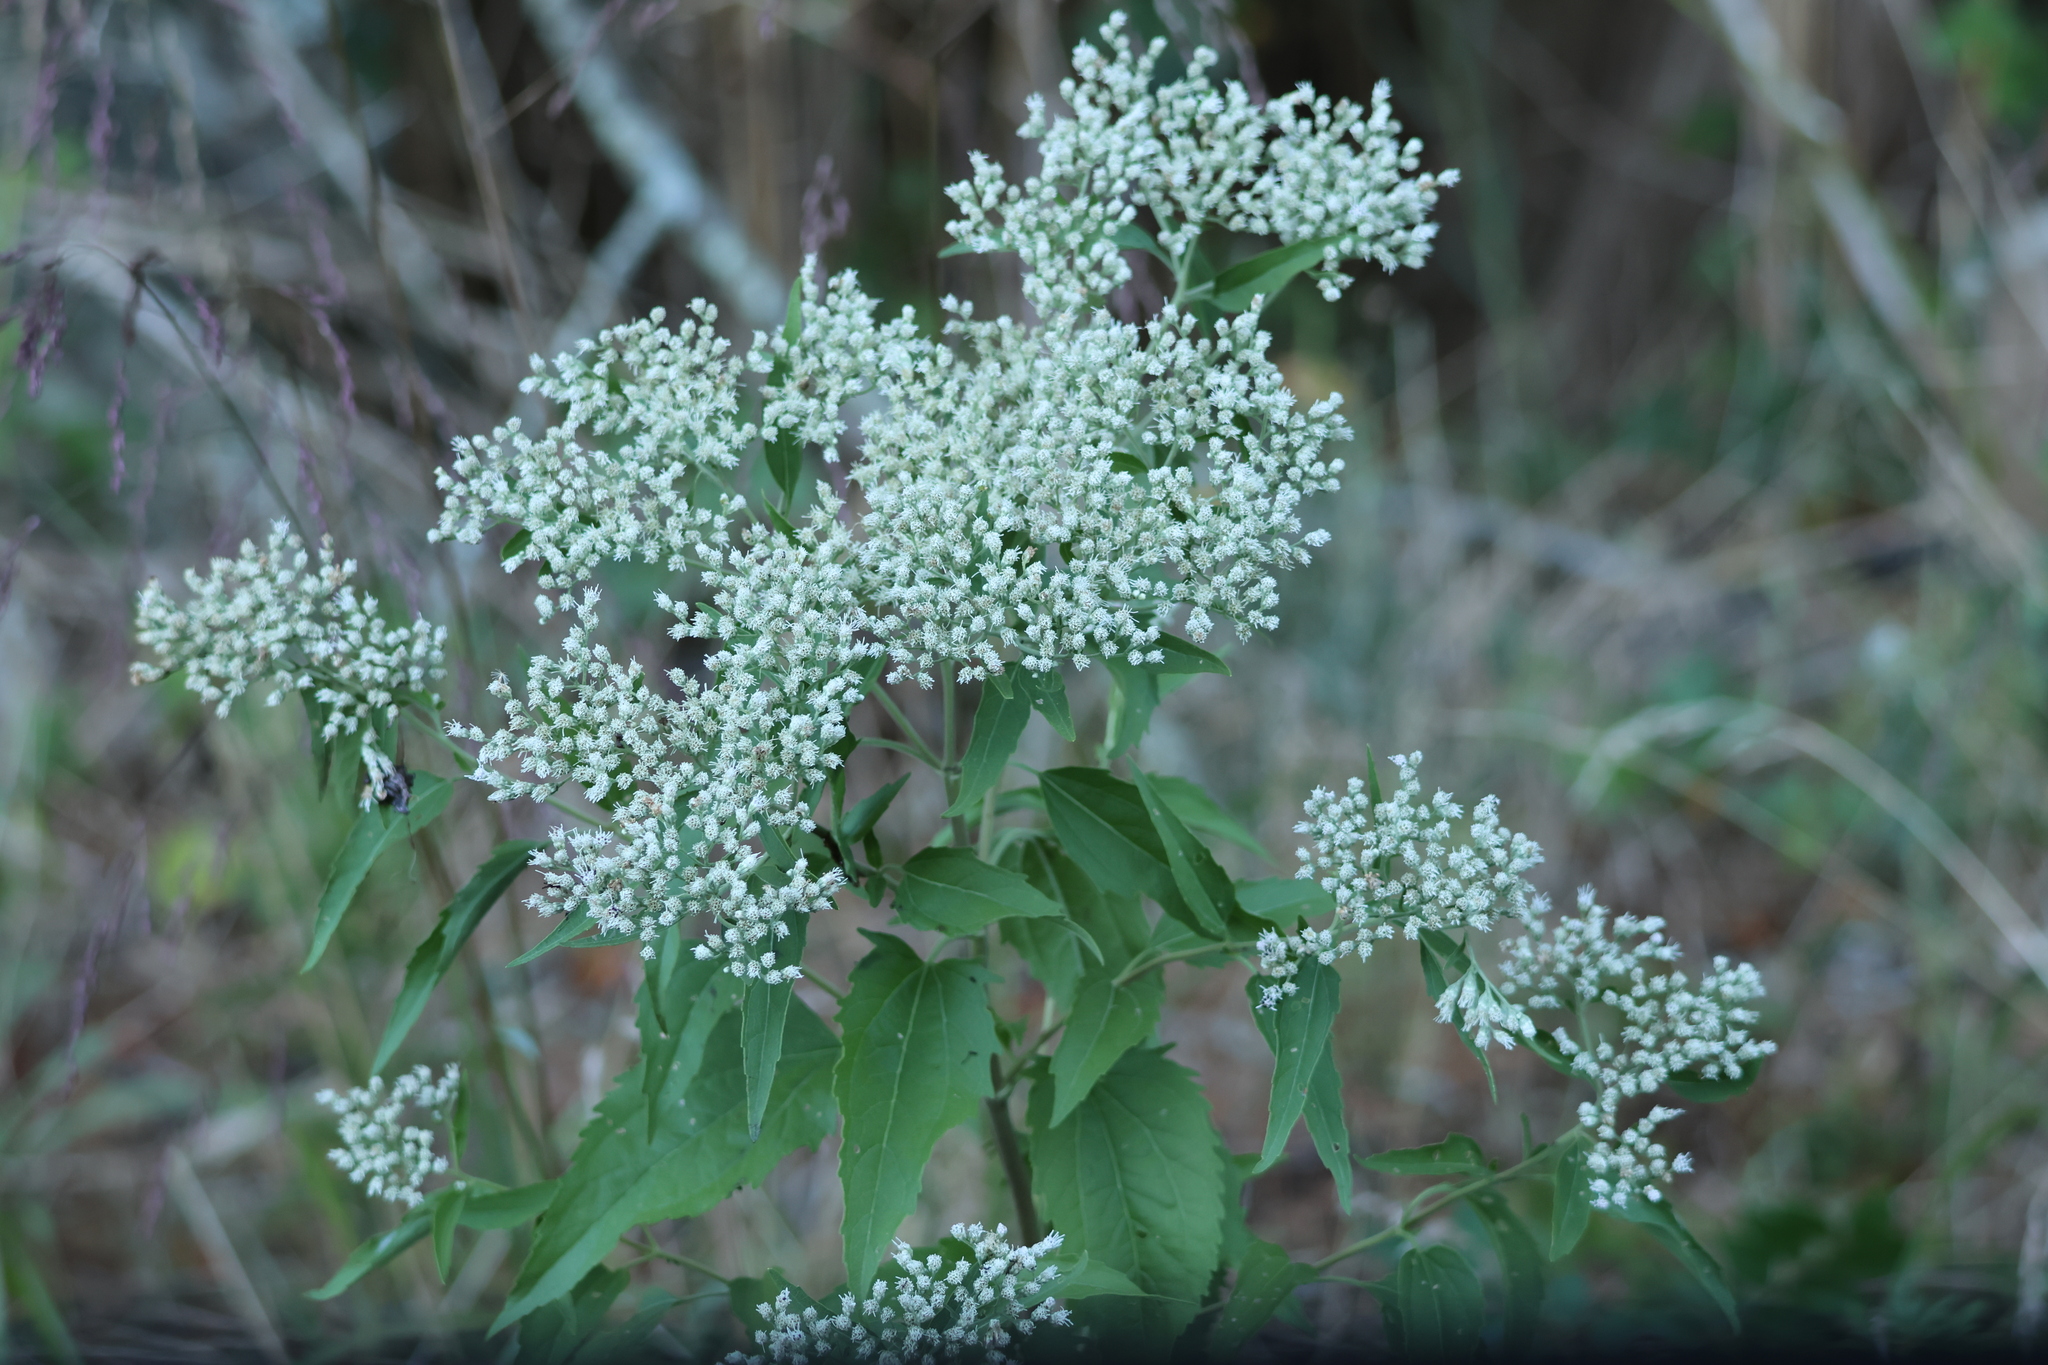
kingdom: Plantae
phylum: Tracheophyta
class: Magnoliopsida
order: Asterales
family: Asteraceae
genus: Eupatorium
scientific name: Eupatorium serotinum
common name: Late boneset
